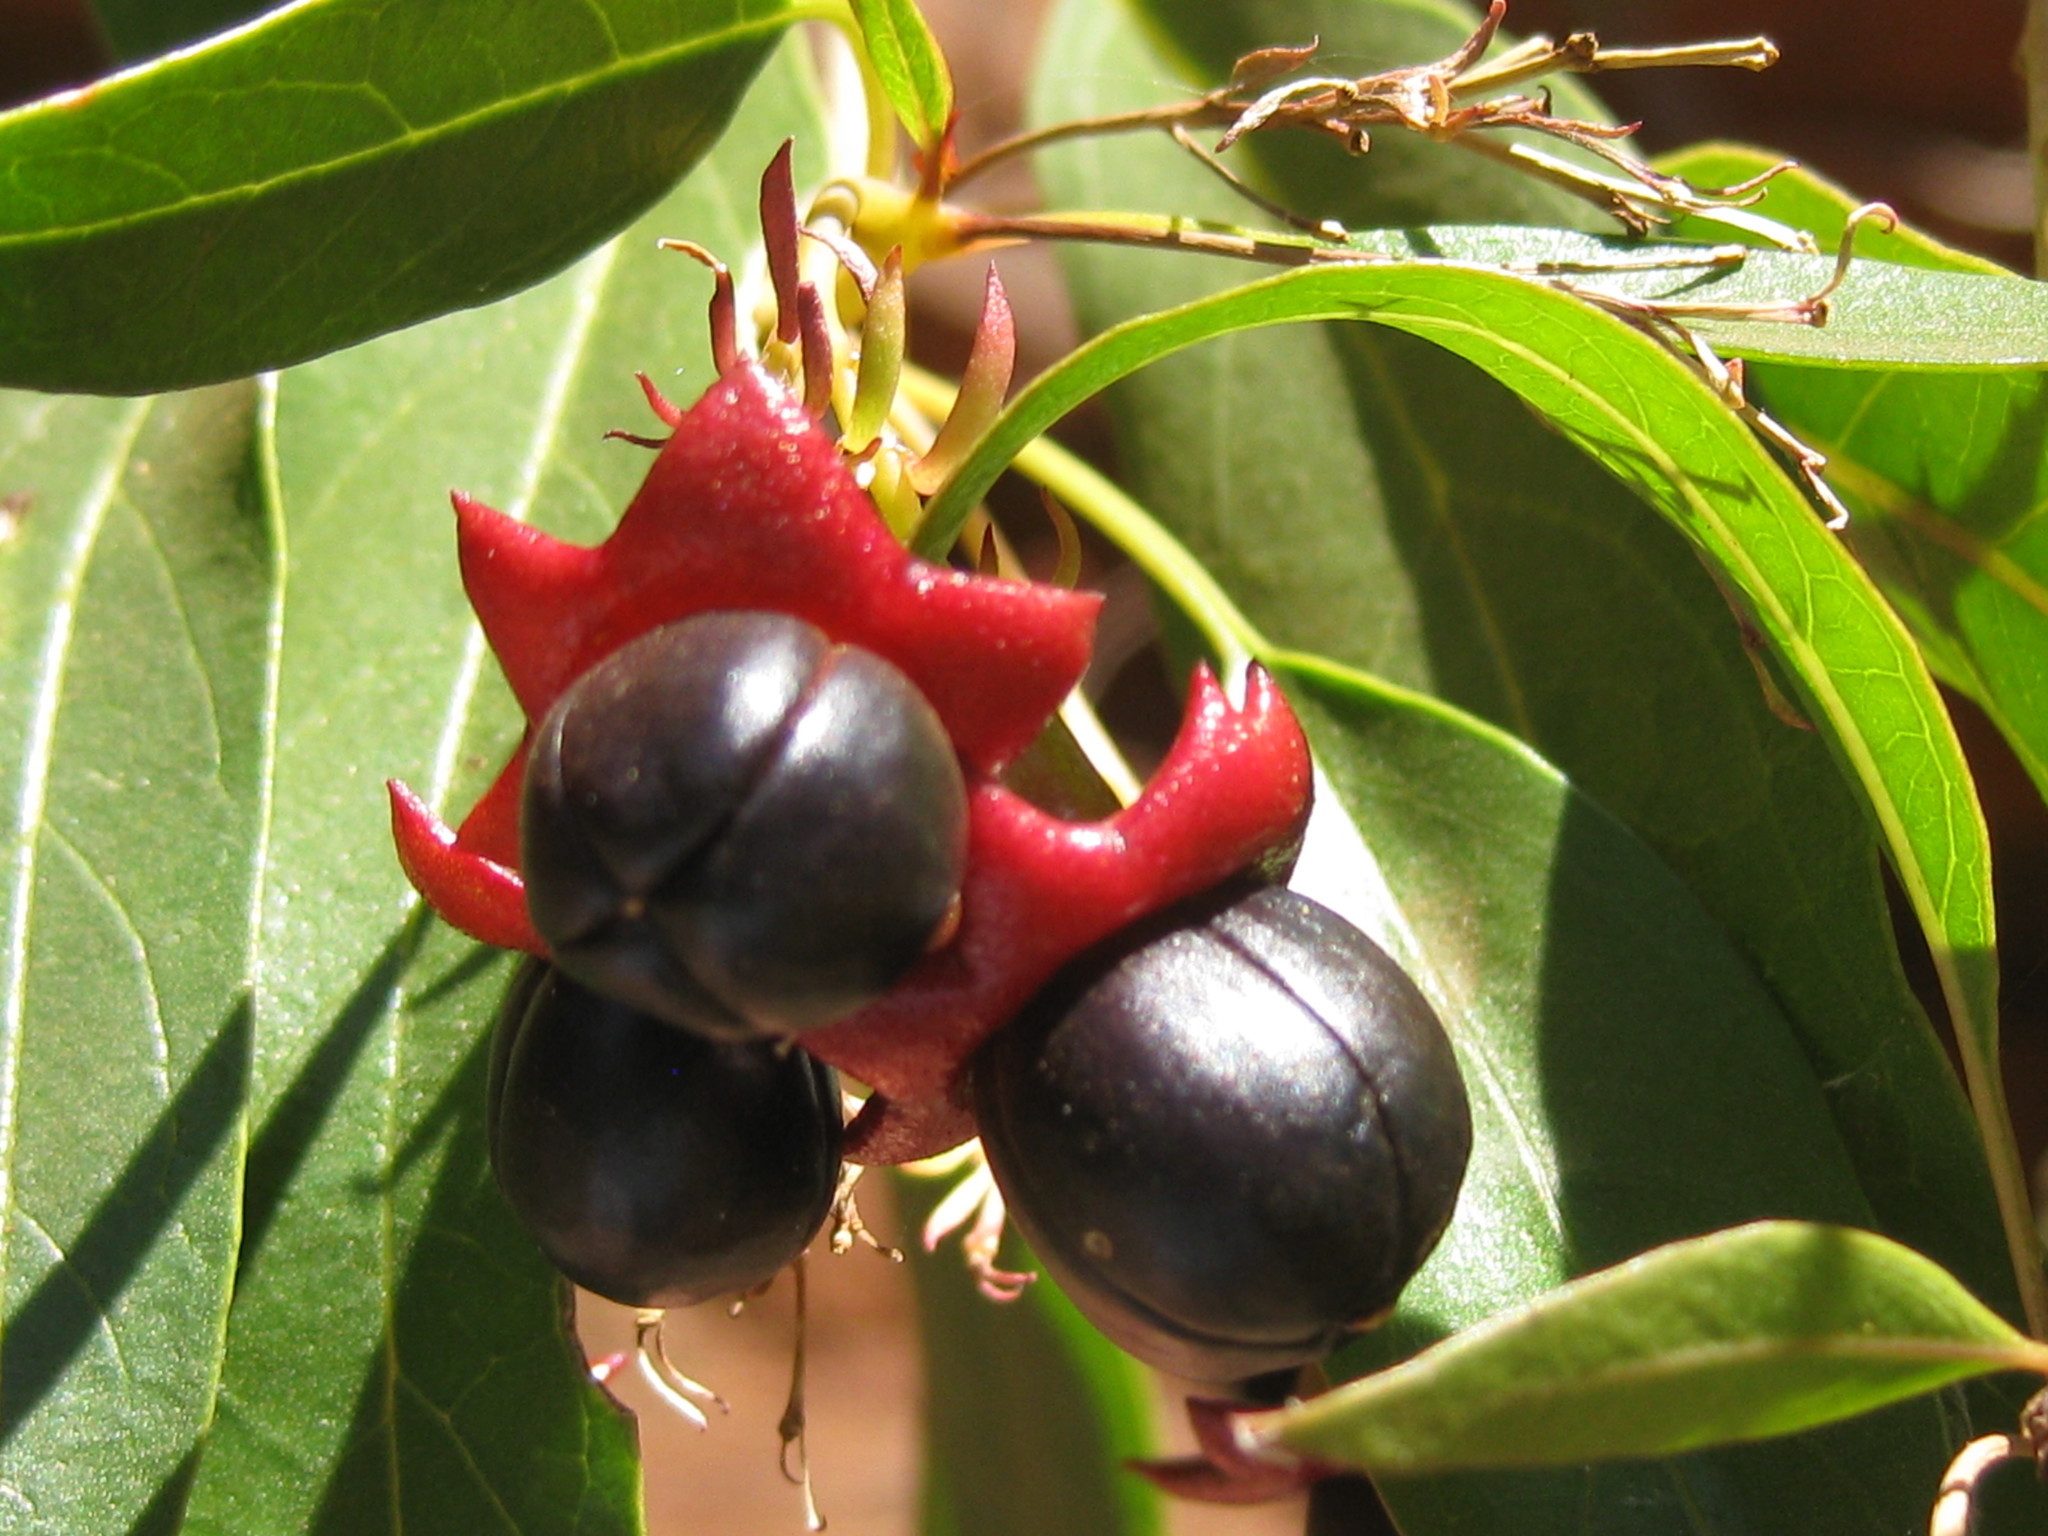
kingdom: Plantae
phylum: Tracheophyta
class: Magnoliopsida
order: Lamiales
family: Lamiaceae
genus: Clerodendrum
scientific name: Clerodendrum floribundum
